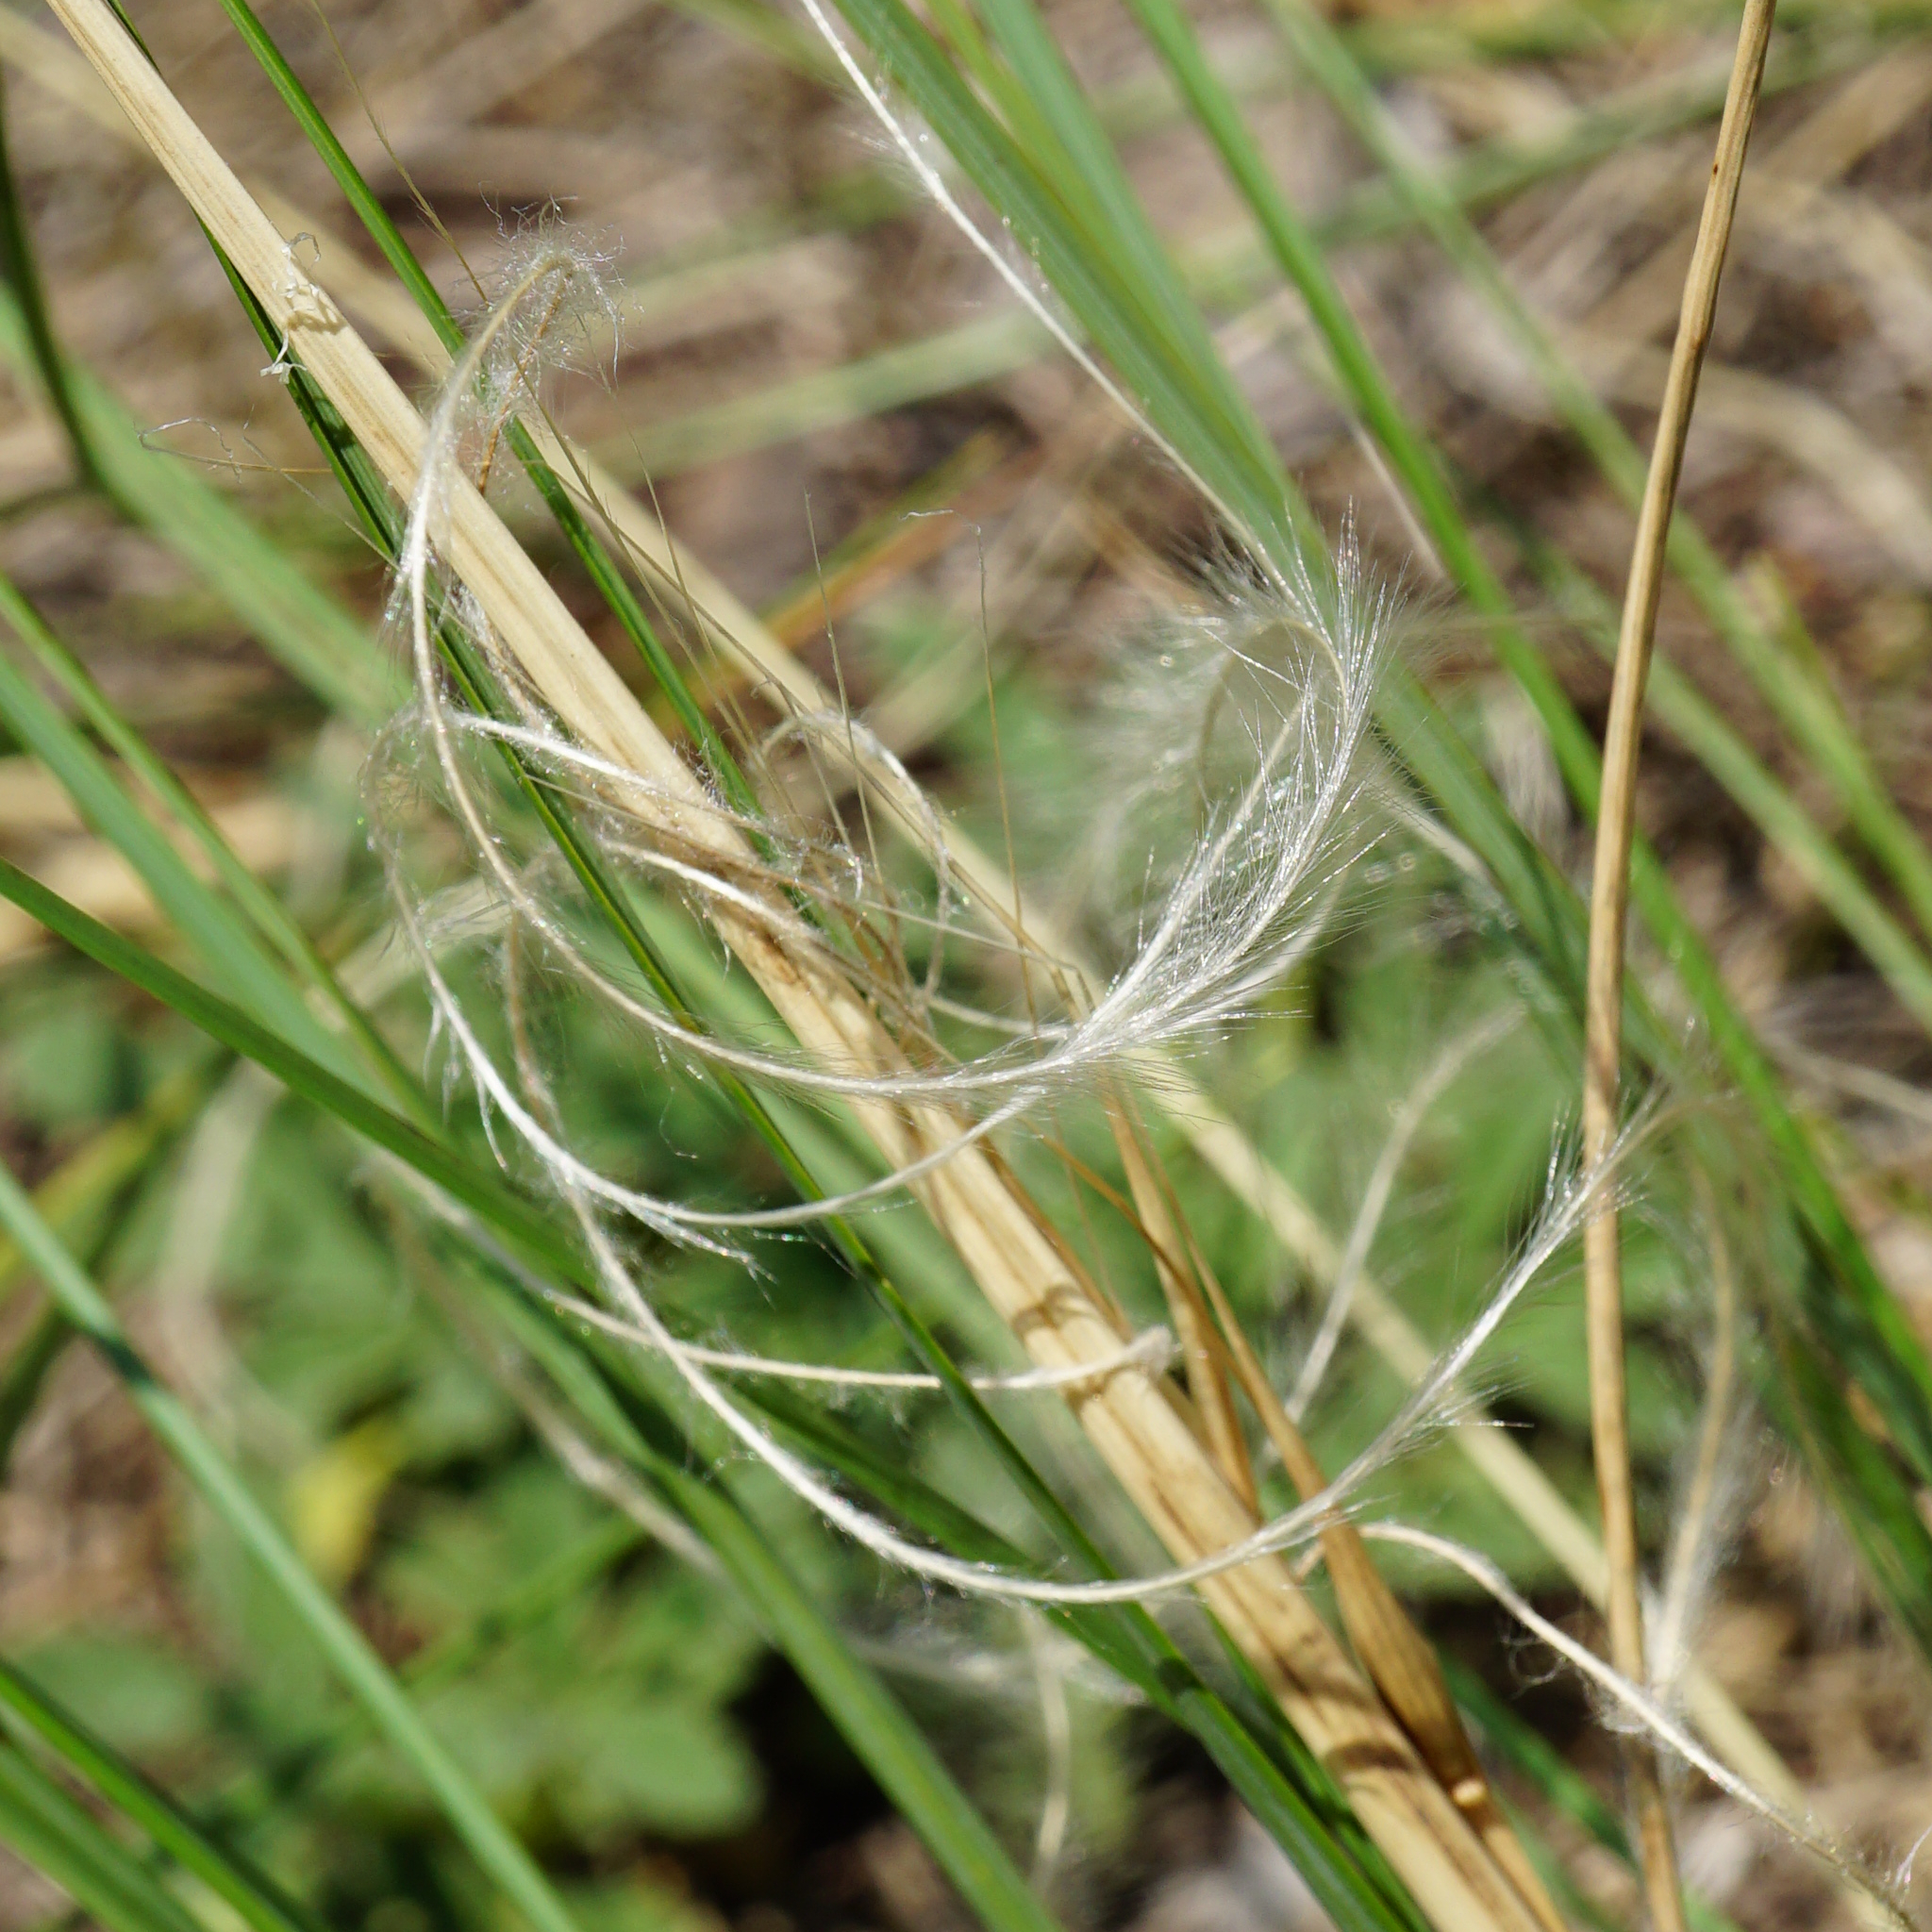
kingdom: Plantae
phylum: Tracheophyta
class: Liliopsida
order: Poales
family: Poaceae
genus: Stipa
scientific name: Stipa pennata
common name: European feather grass
